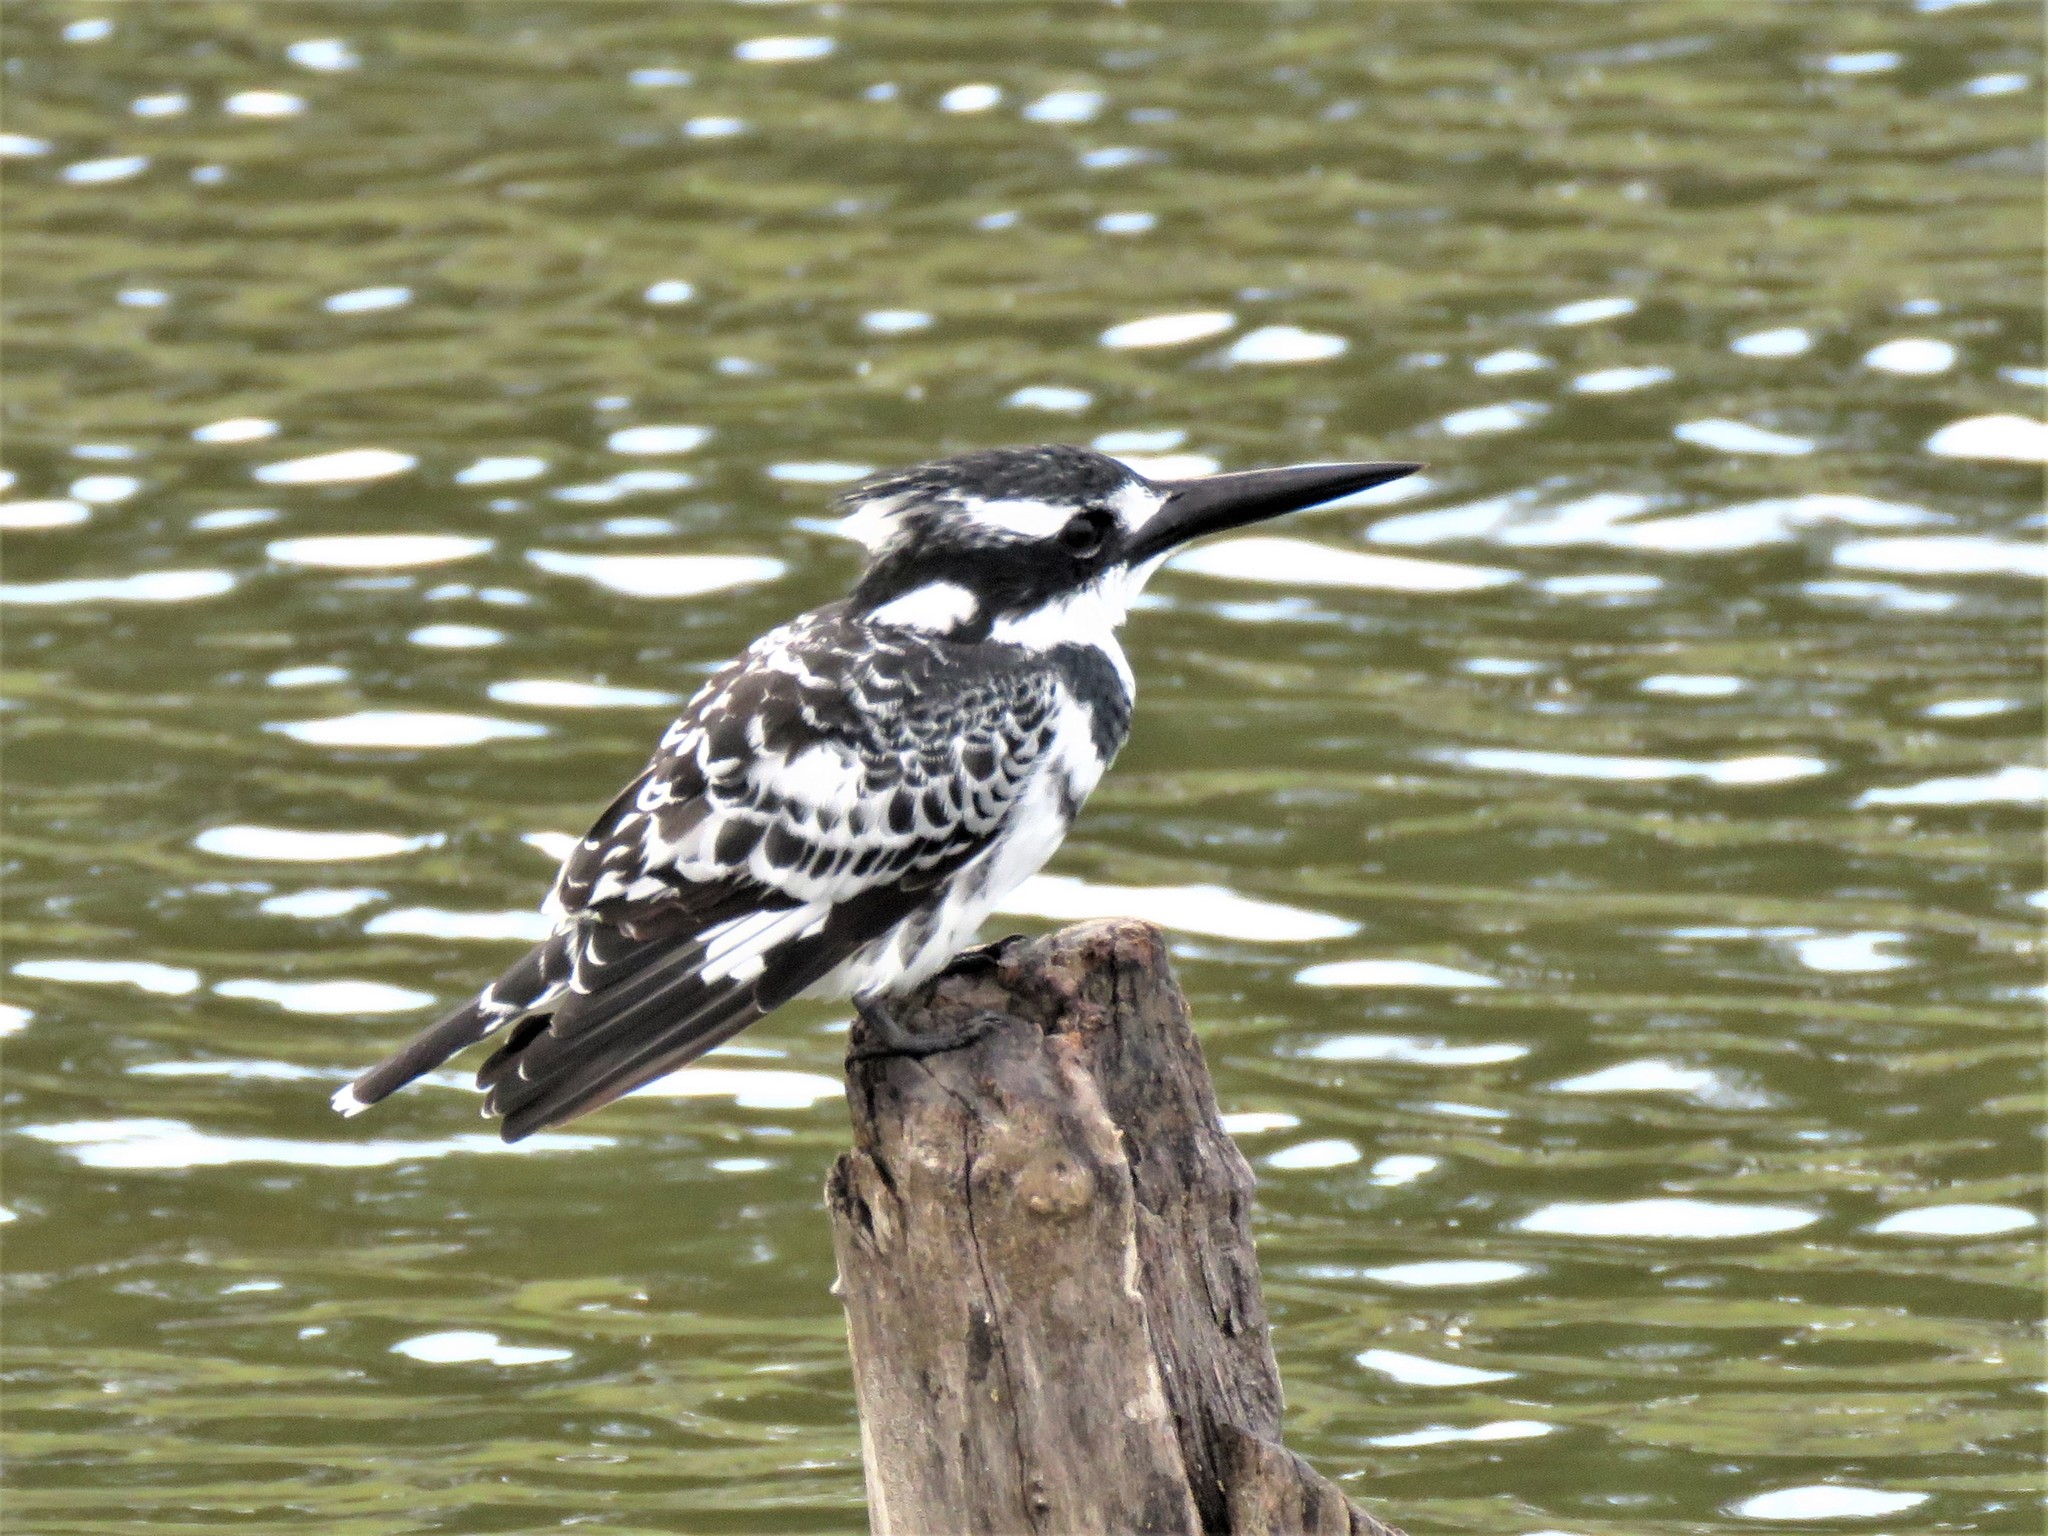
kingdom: Animalia
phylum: Chordata
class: Aves
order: Coraciiformes
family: Alcedinidae
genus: Ceryle
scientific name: Ceryle rudis
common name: Pied kingfisher
